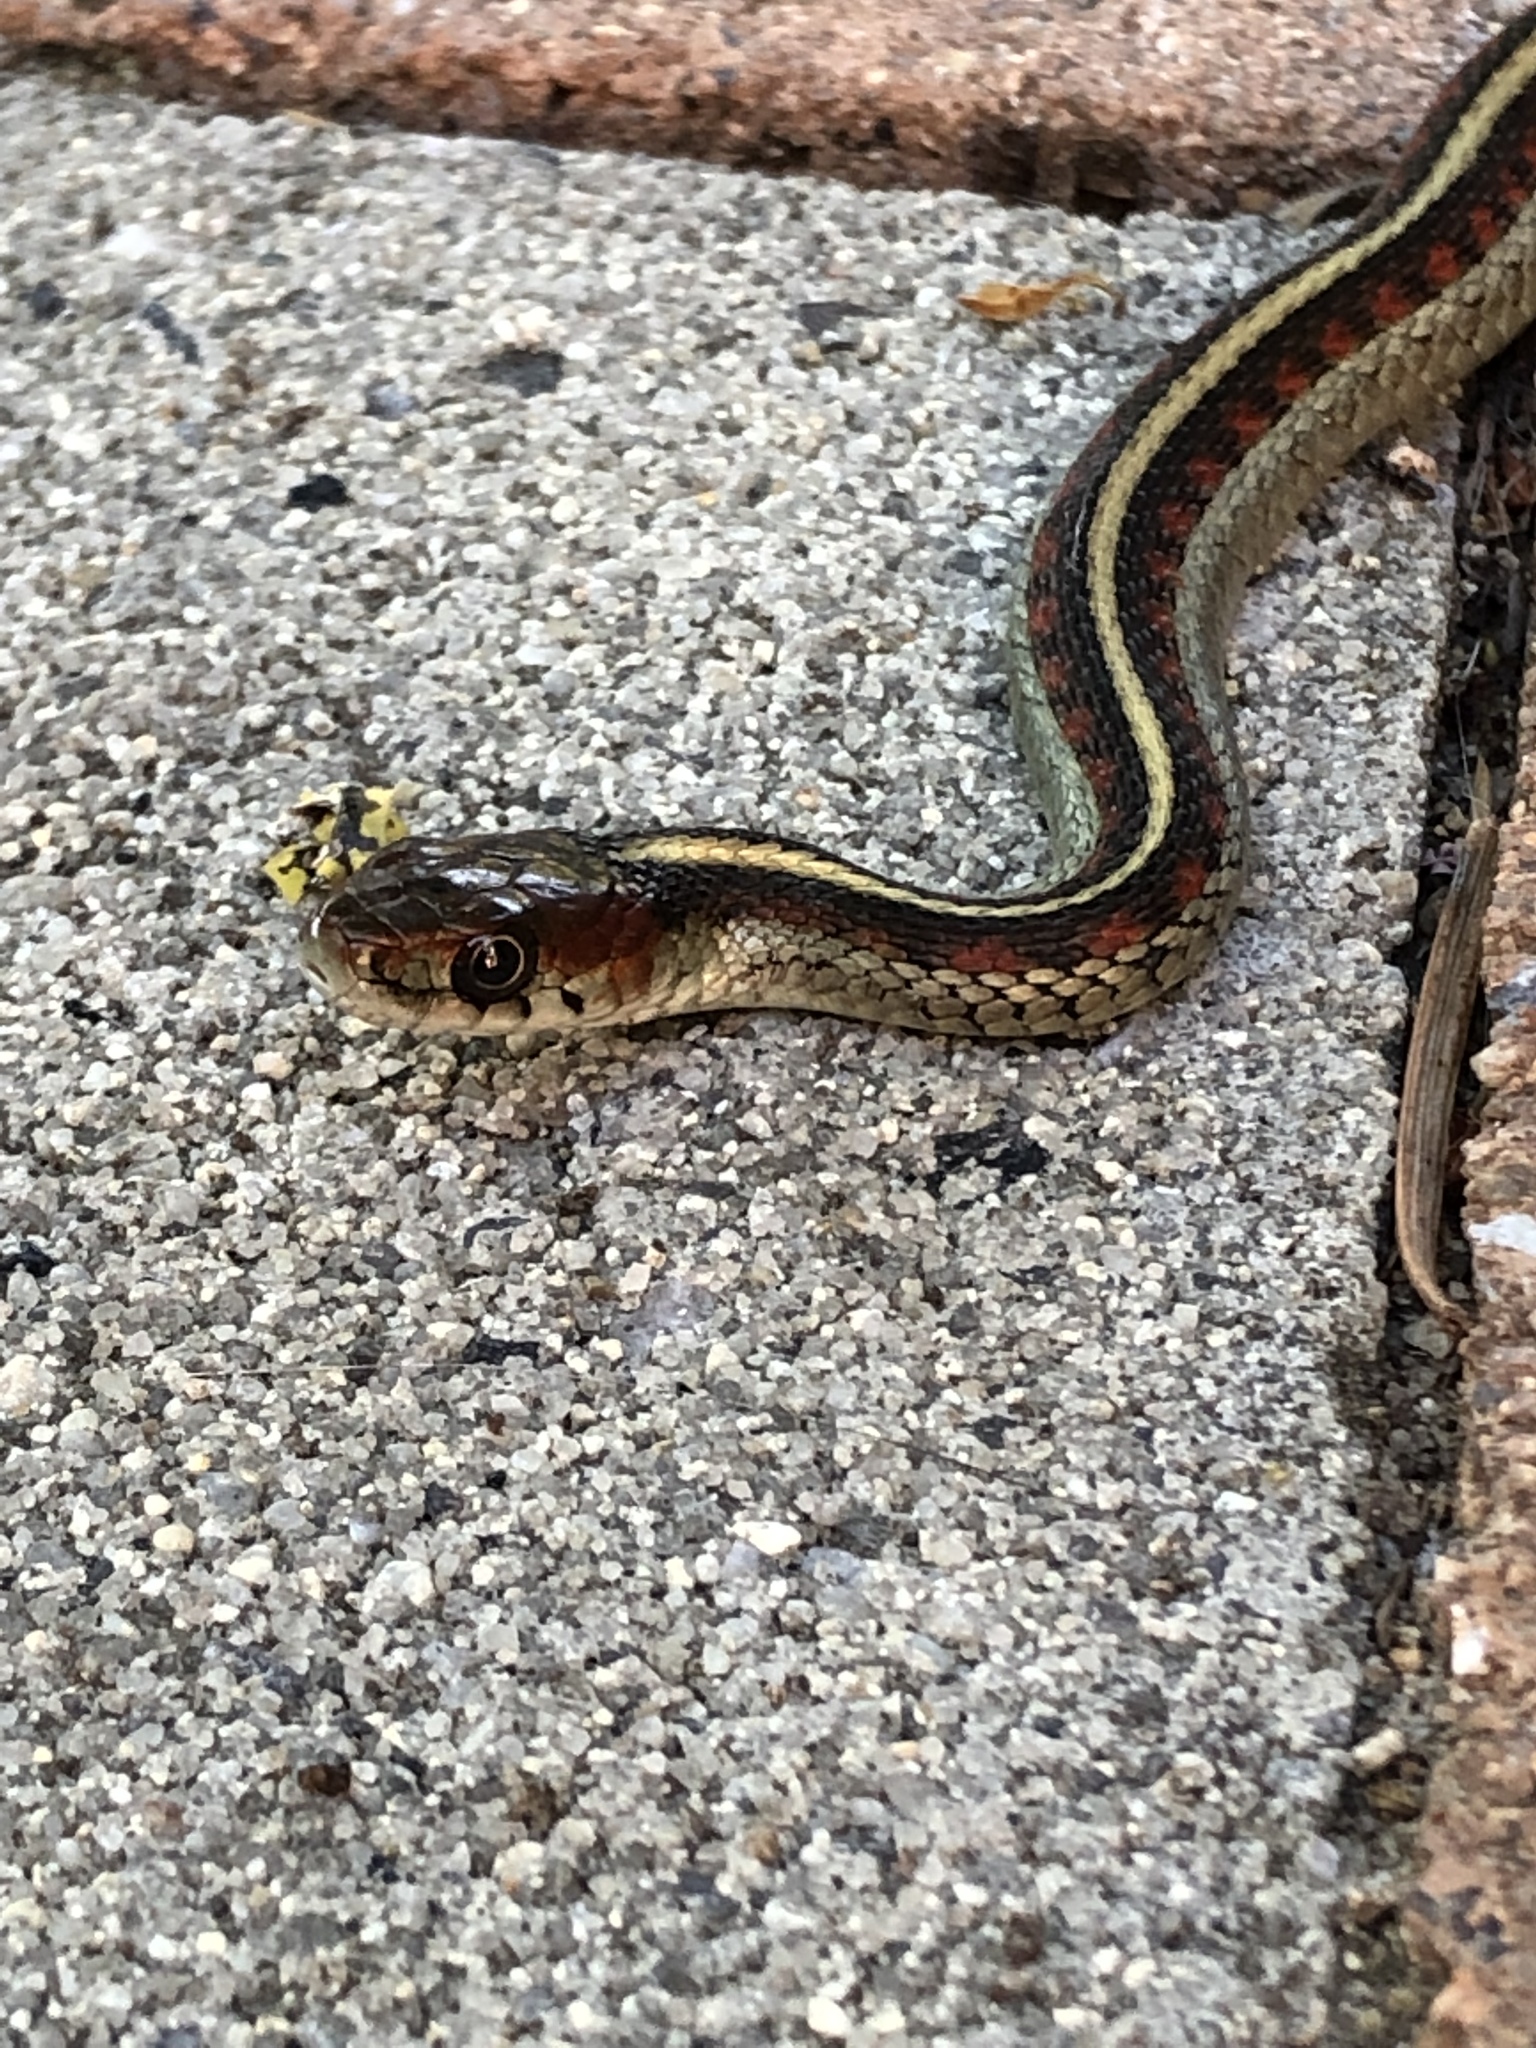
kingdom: Animalia
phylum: Chordata
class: Squamata
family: Colubridae
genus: Thamnophis
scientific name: Thamnophis sirtalis
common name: Common garter snake
